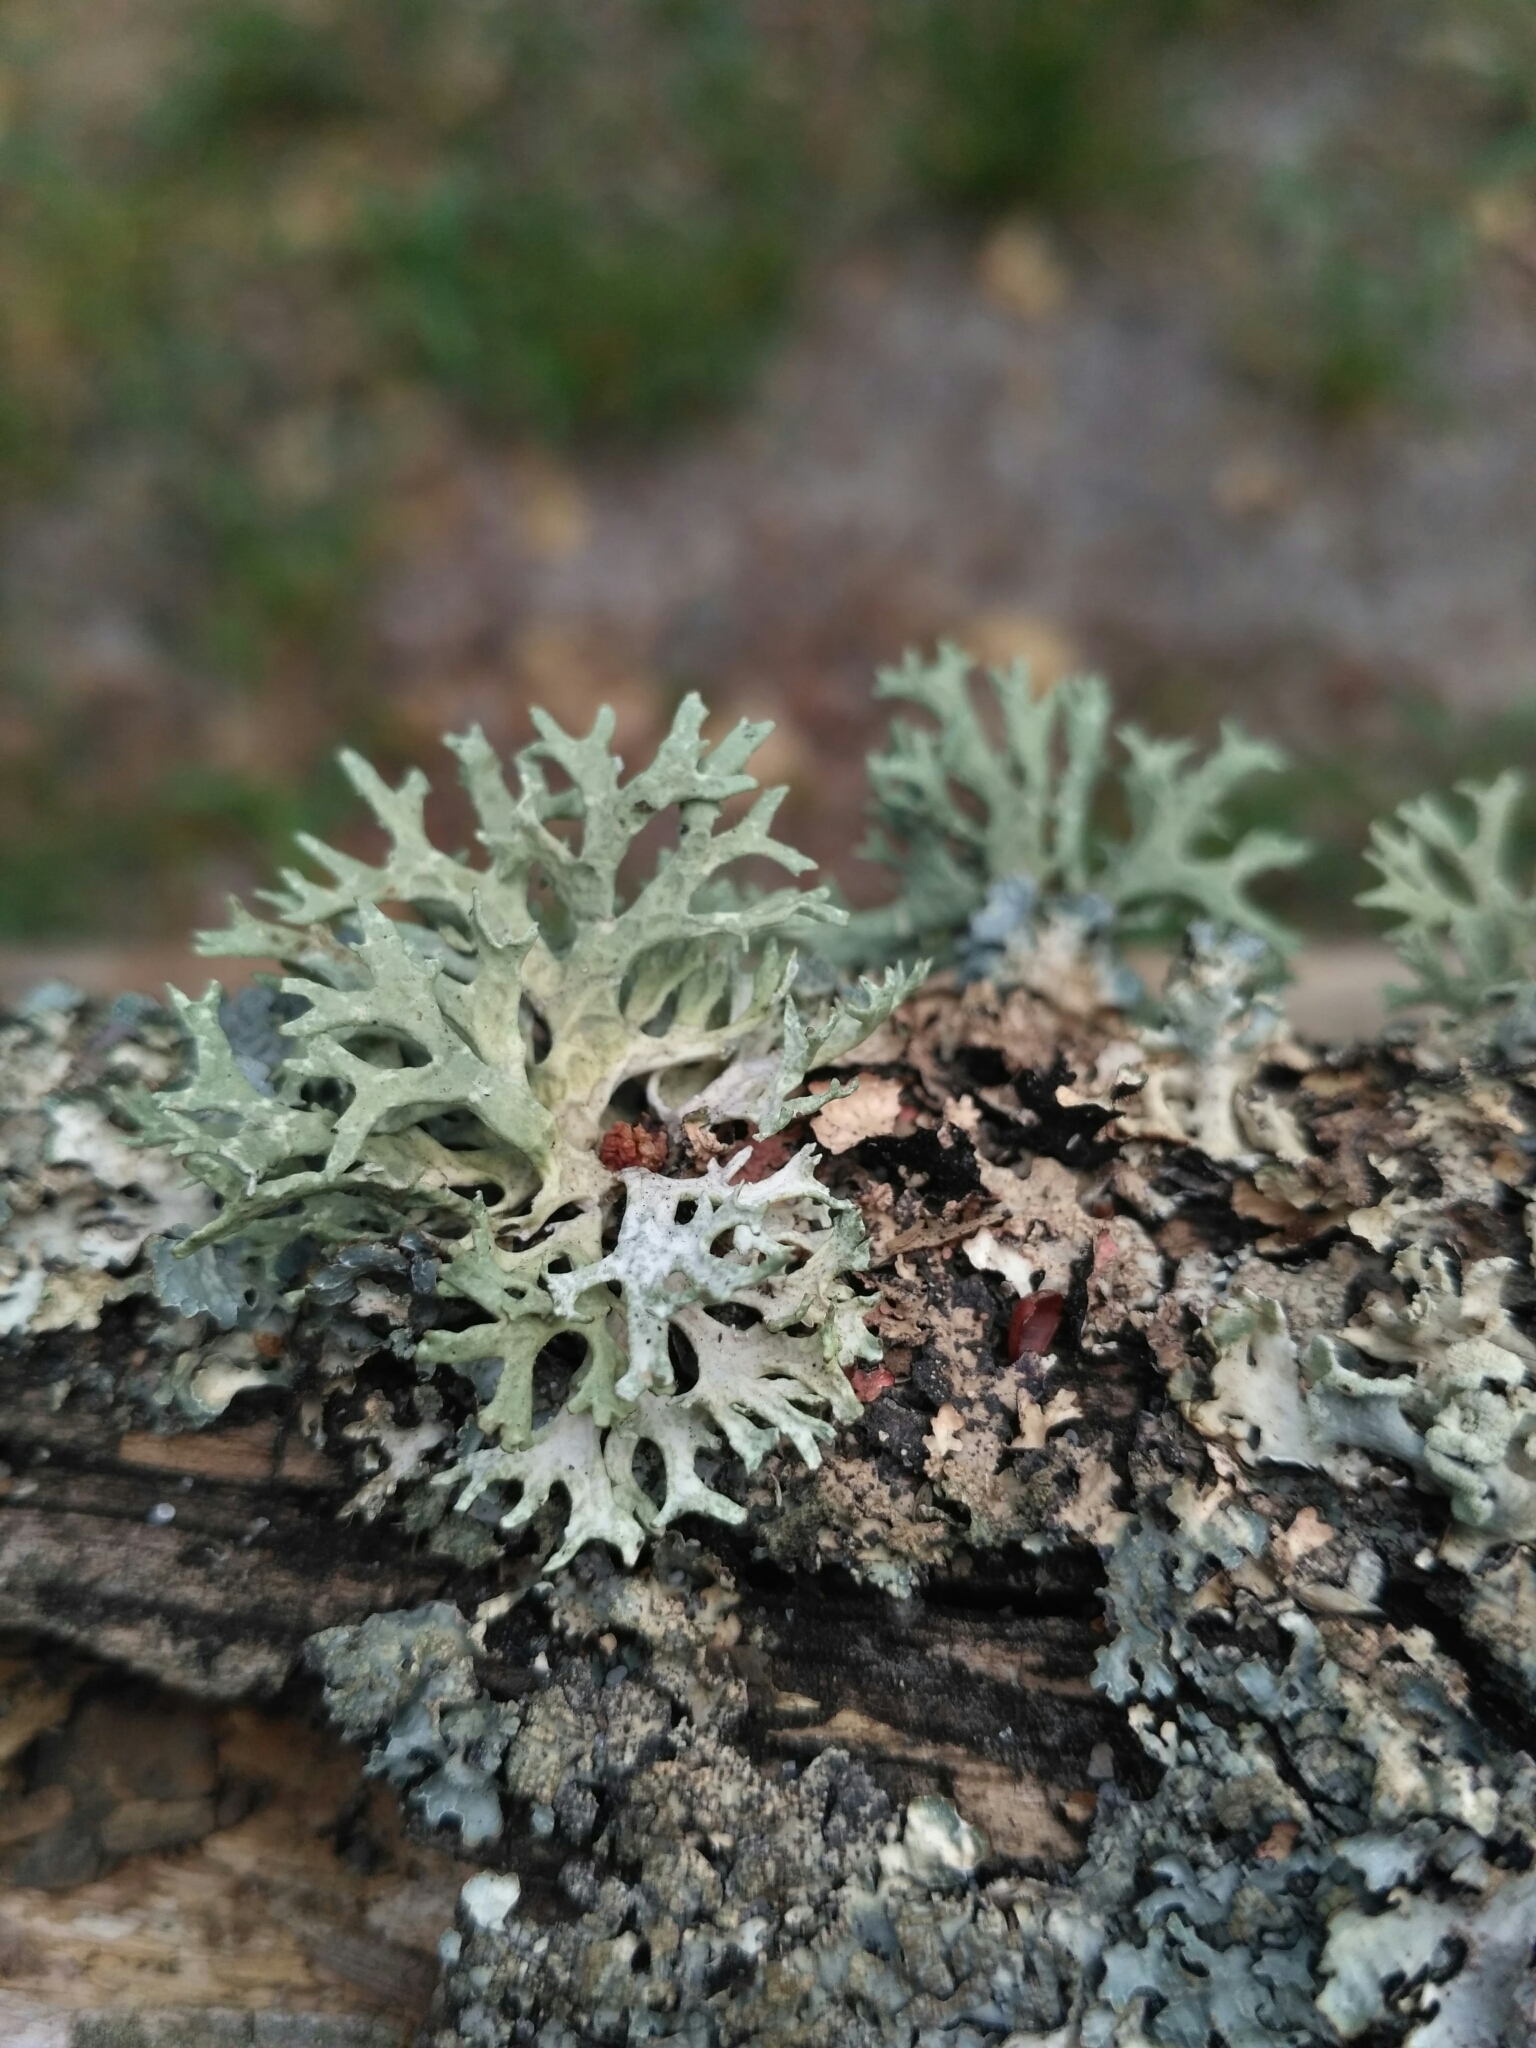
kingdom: Fungi
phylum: Ascomycota
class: Lecanoromycetes
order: Lecanorales
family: Parmeliaceae
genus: Evernia
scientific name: Evernia prunastri
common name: Oak moss
